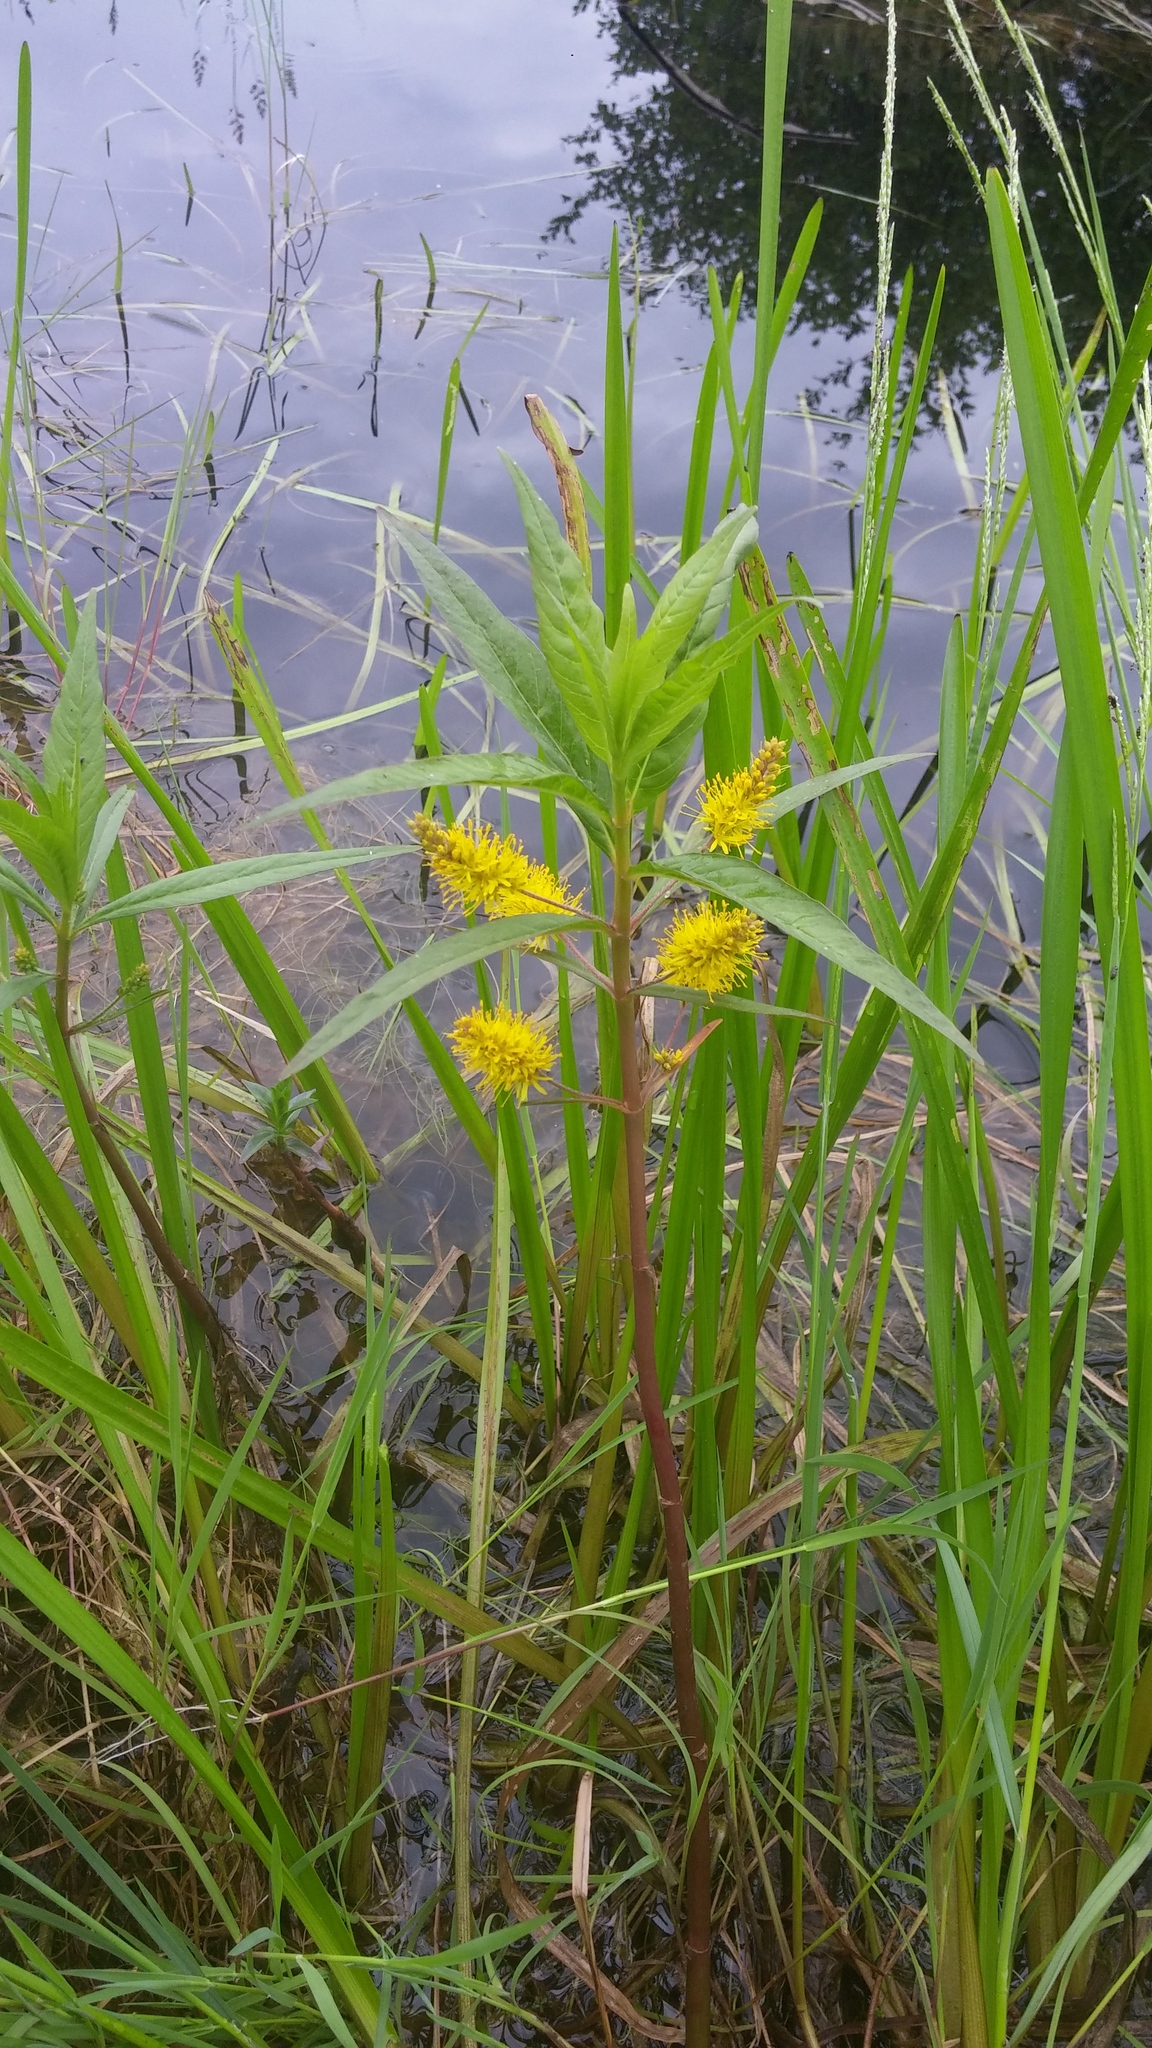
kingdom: Plantae
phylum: Tracheophyta
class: Magnoliopsida
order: Ericales
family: Primulaceae
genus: Lysimachia
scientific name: Lysimachia thyrsiflora
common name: Tufted loosestrife
